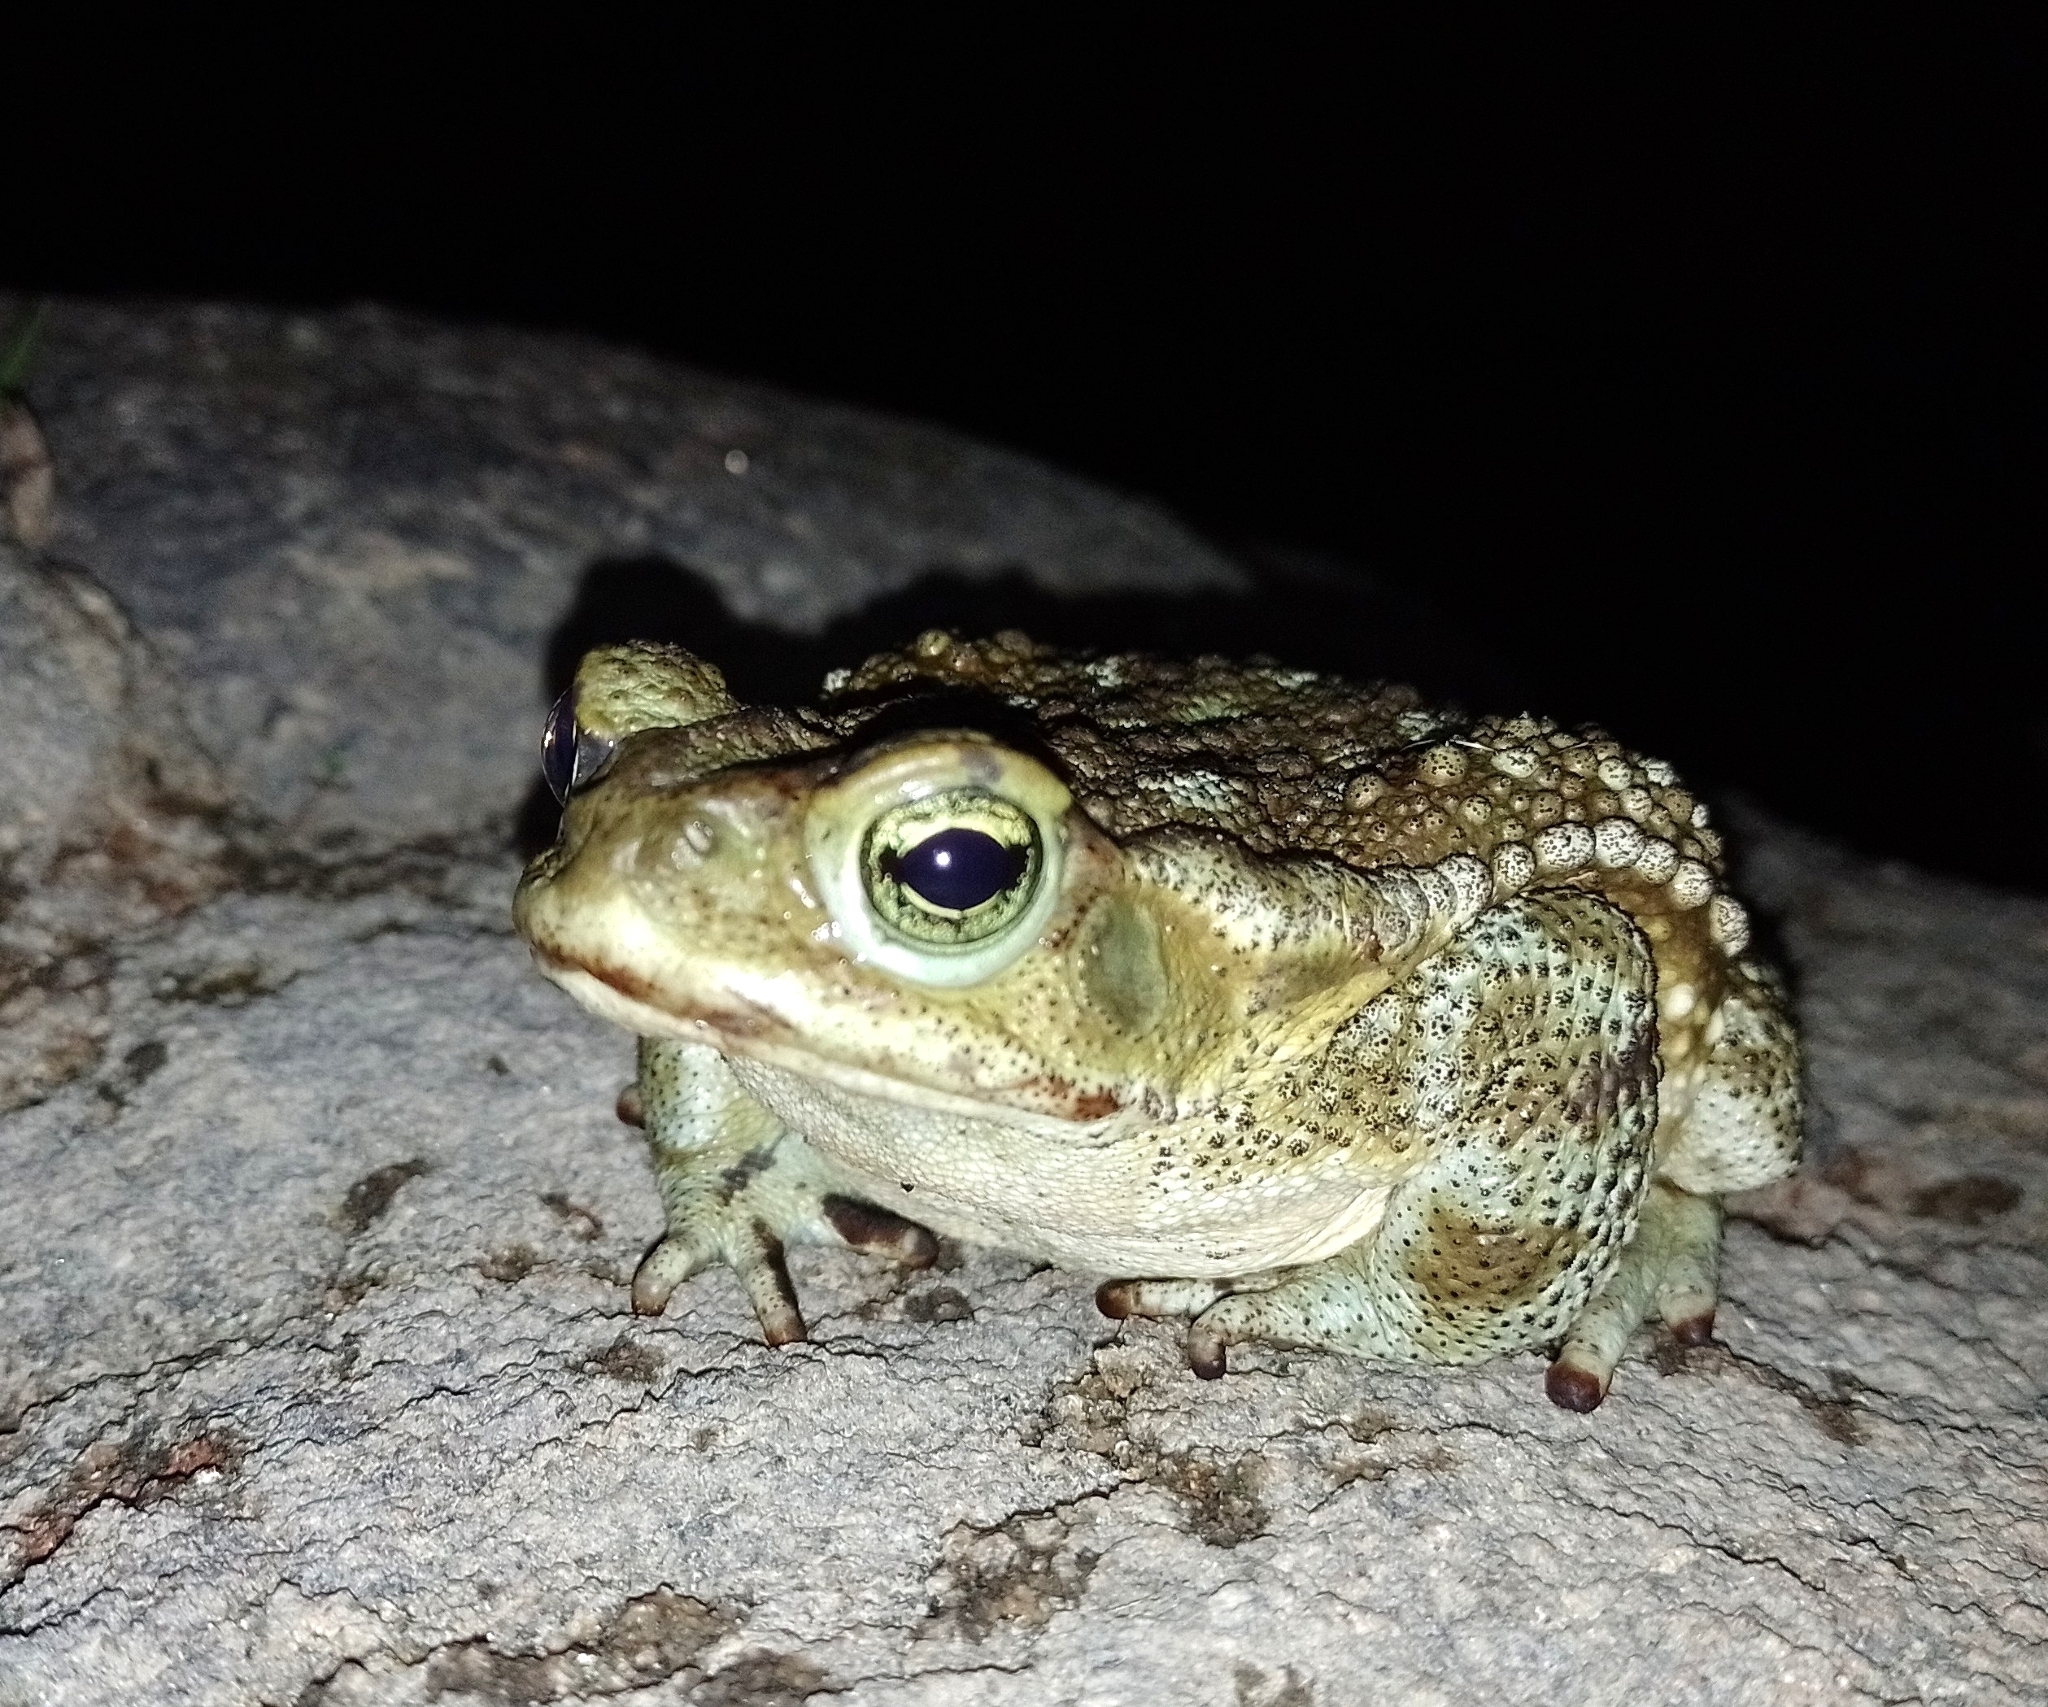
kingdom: Animalia
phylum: Chordata
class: Amphibia
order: Anura
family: Bufonidae
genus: Rhinella
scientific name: Rhinella arenarum
